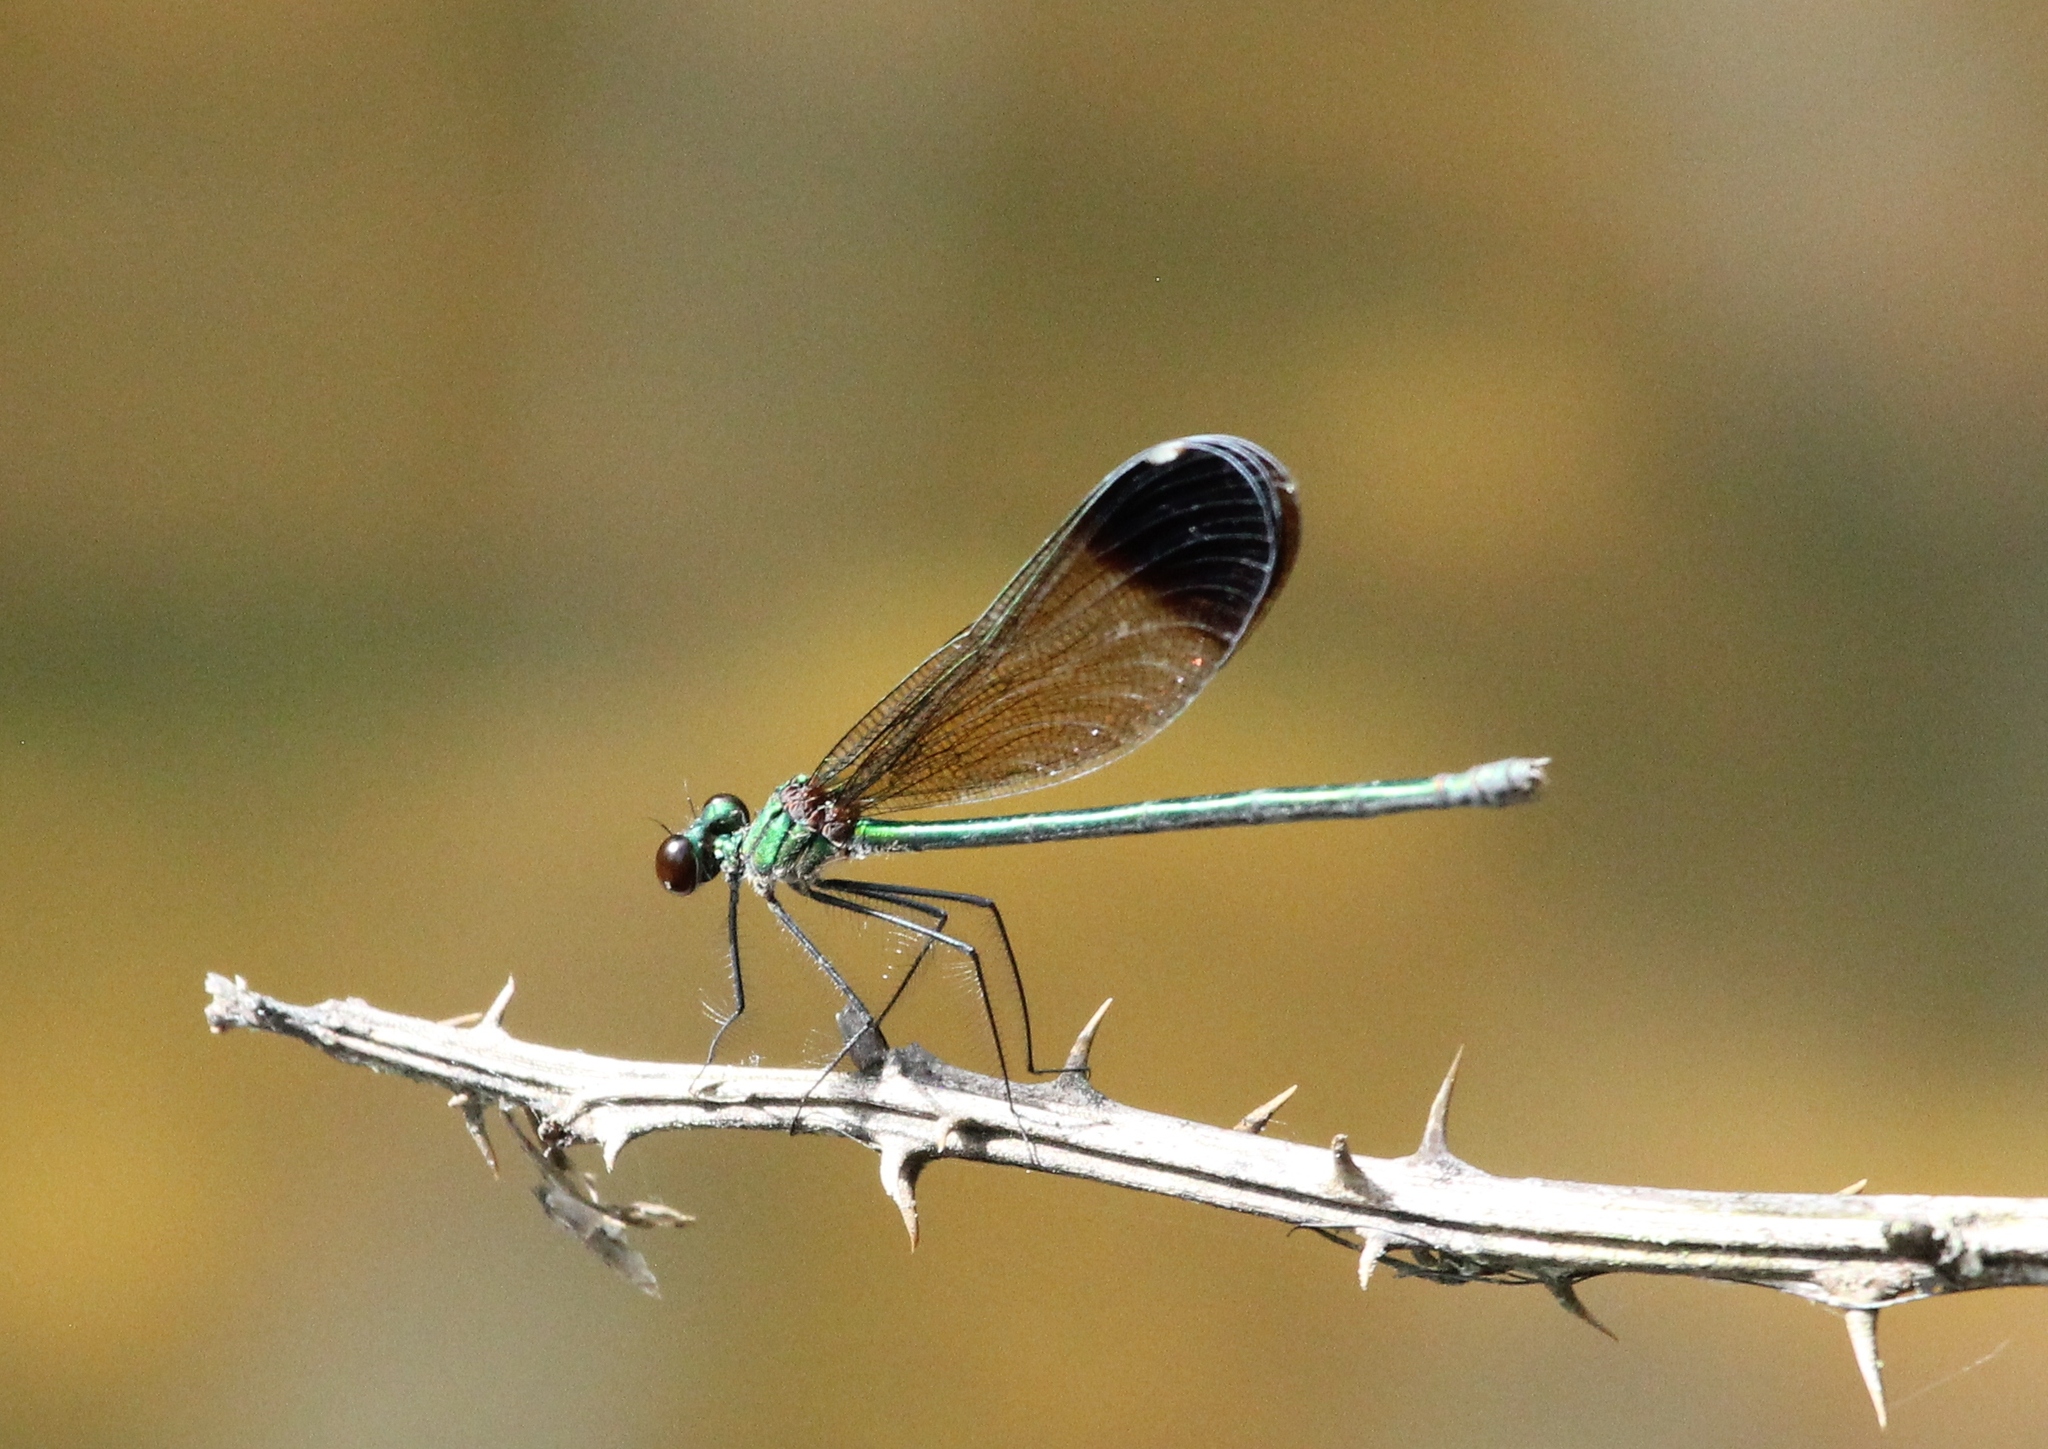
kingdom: Animalia
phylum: Arthropoda
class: Insecta
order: Odonata
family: Calopterygidae
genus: Calopteryx
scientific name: Calopteryx dimidiata
